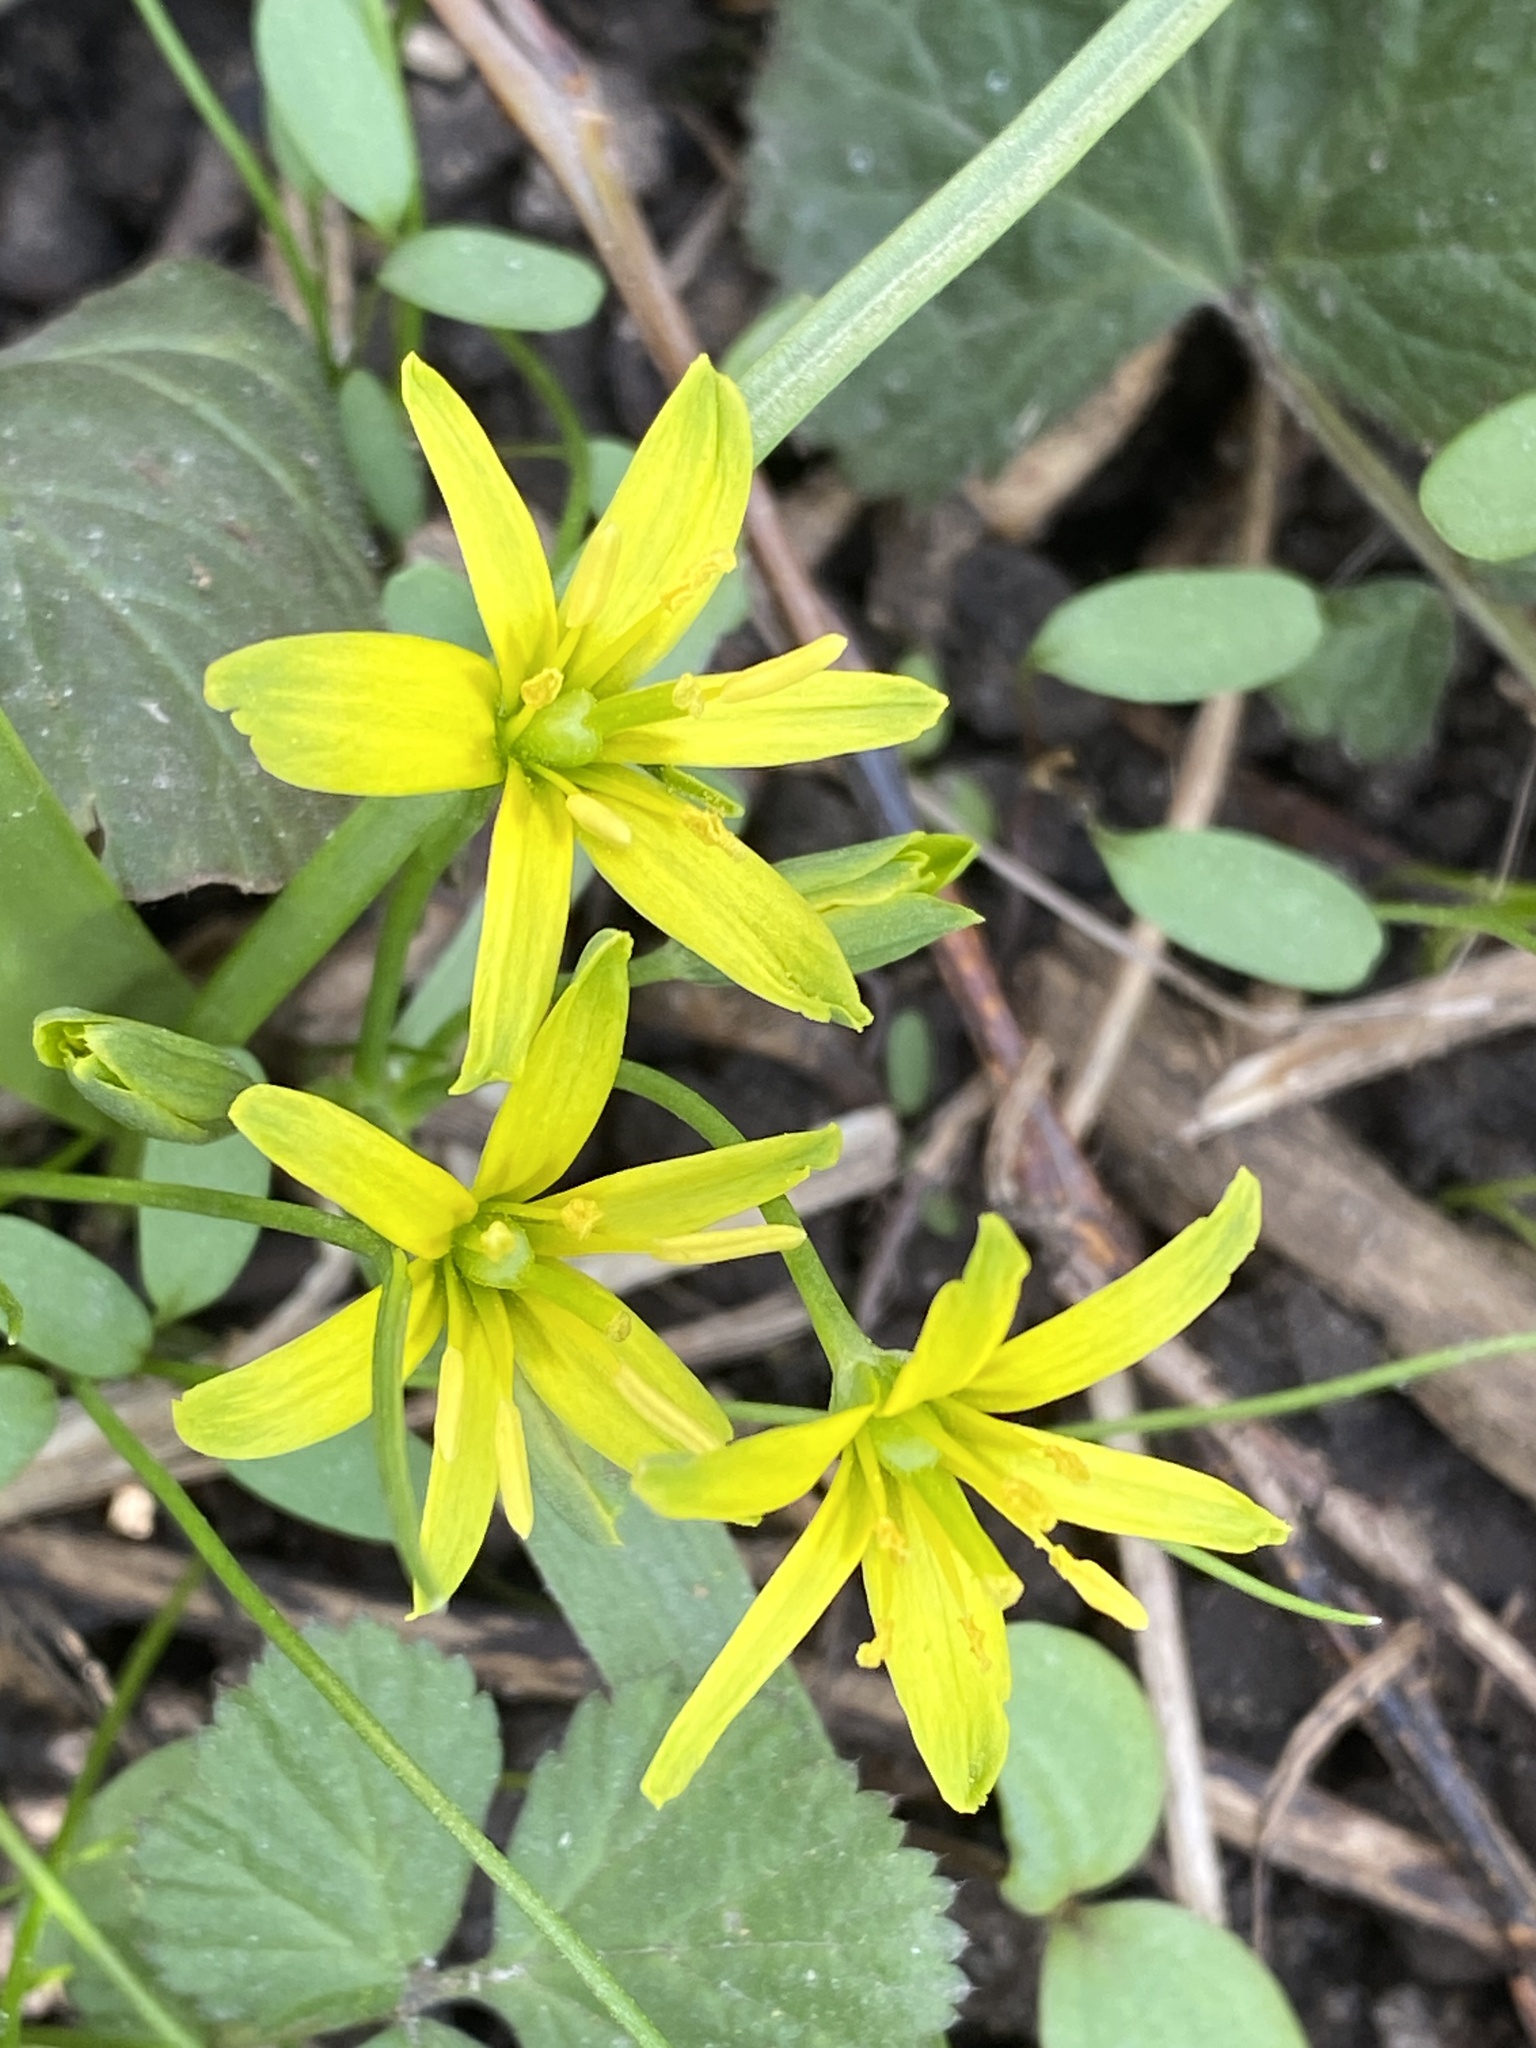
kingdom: Plantae
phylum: Tracheophyta
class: Liliopsida
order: Liliales
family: Liliaceae
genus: Gagea
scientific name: Gagea lutea
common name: Yellow star-of-bethlehem
